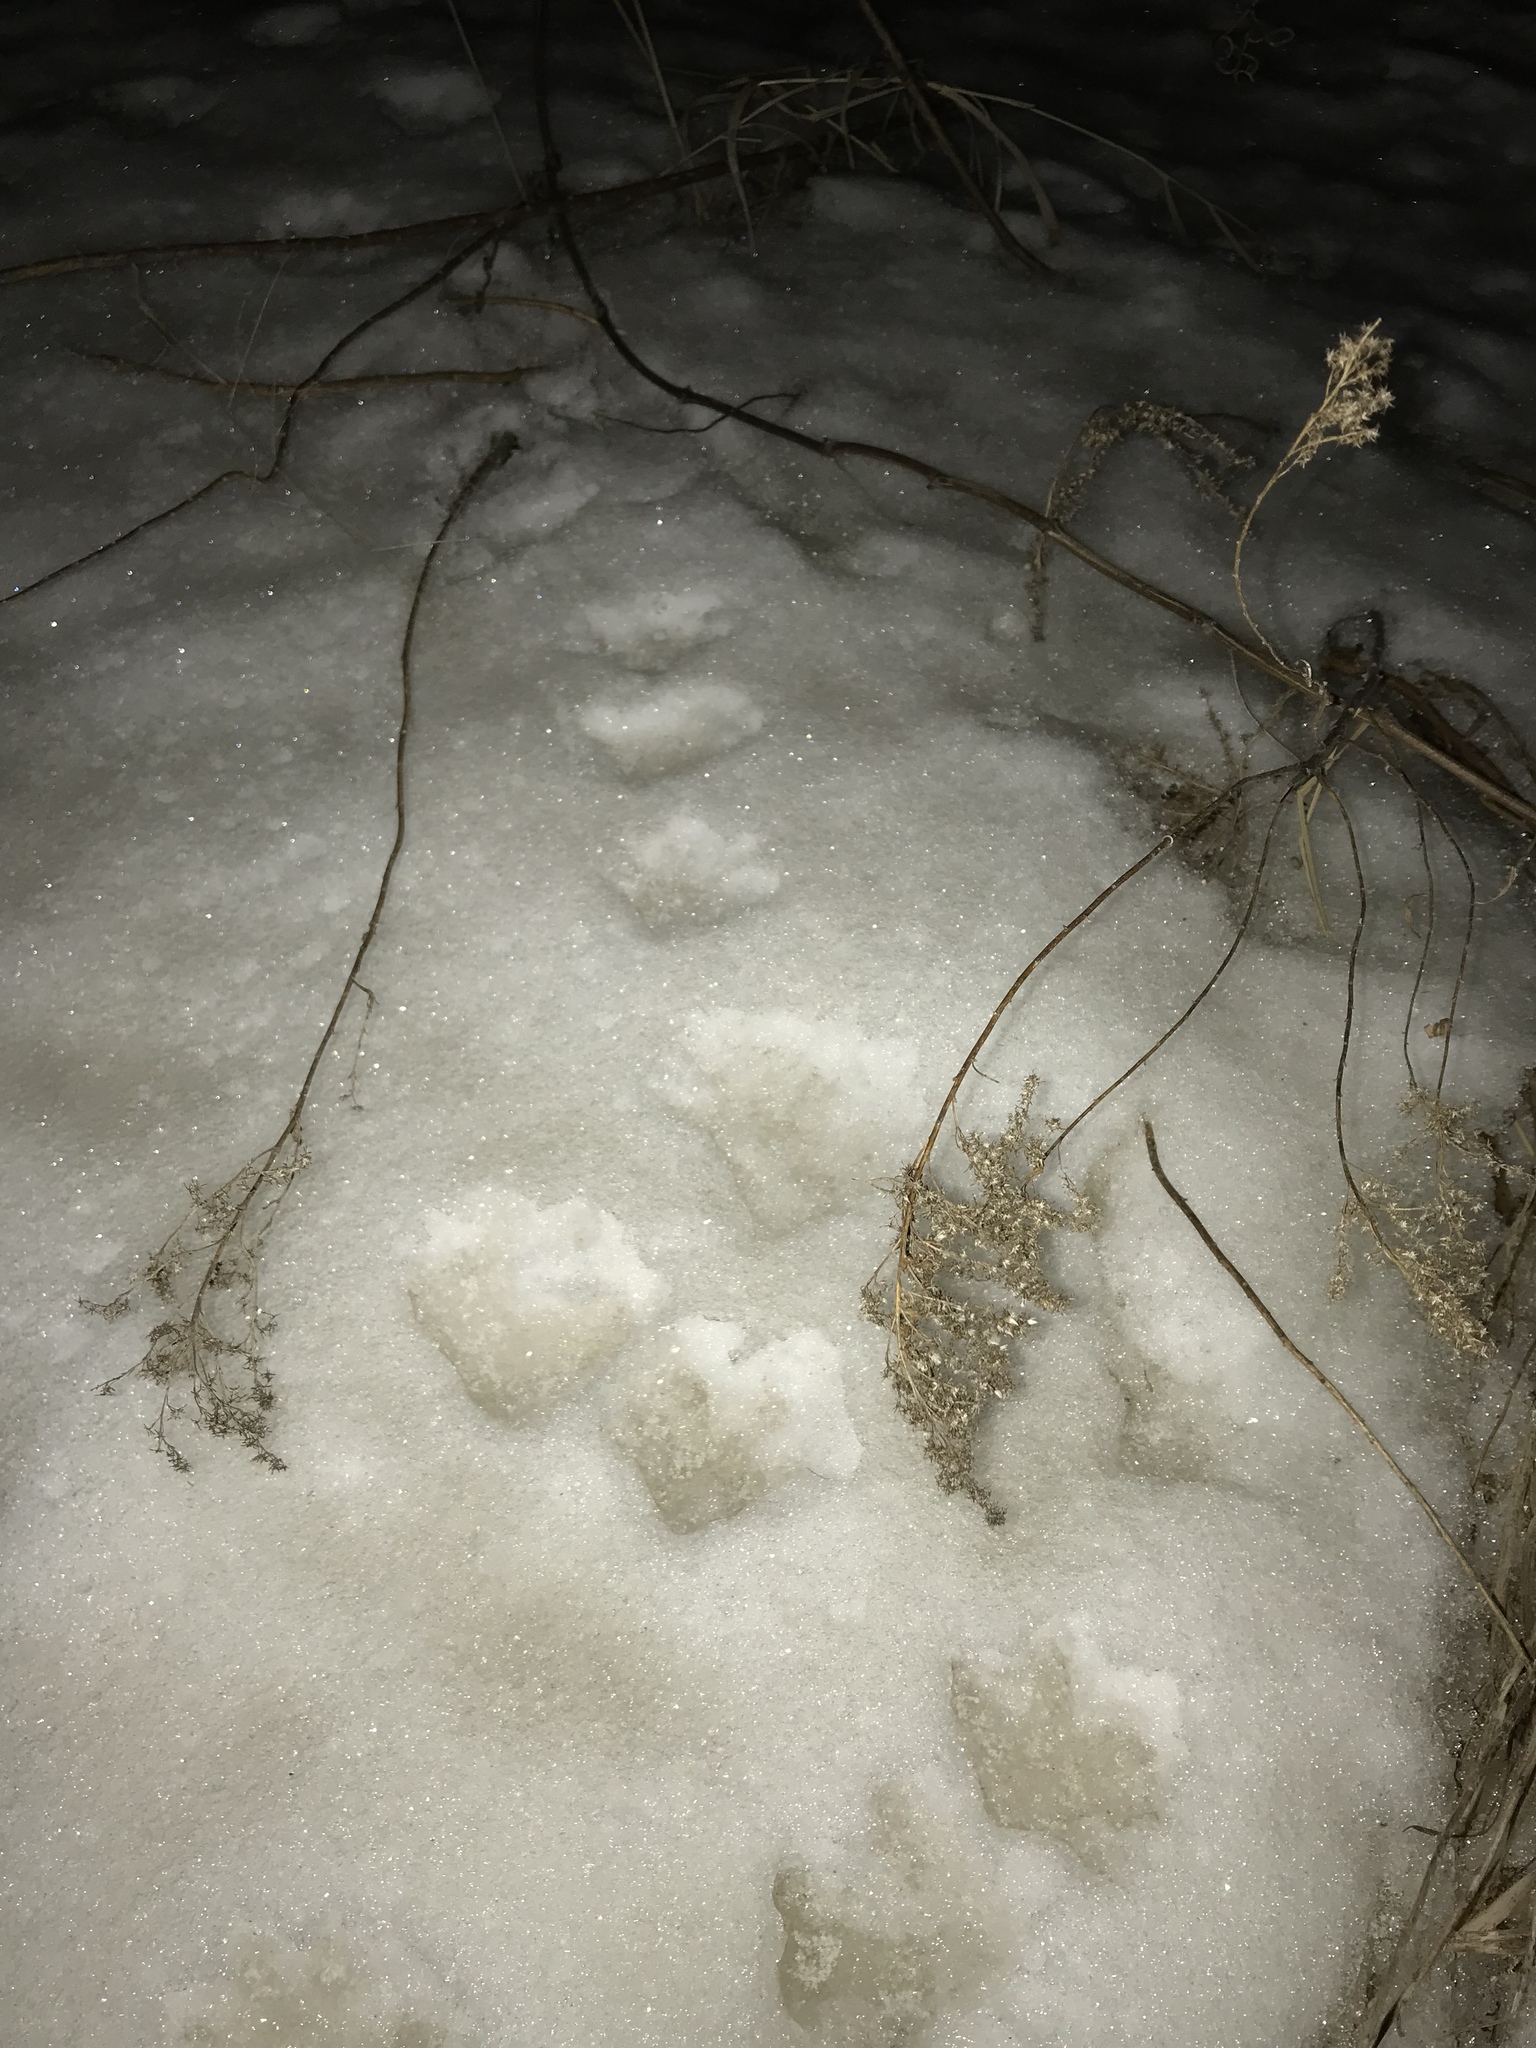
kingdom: Animalia
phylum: Chordata
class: Mammalia
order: Didelphimorphia
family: Didelphidae
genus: Didelphis
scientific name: Didelphis virginiana
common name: Virginia opossum
